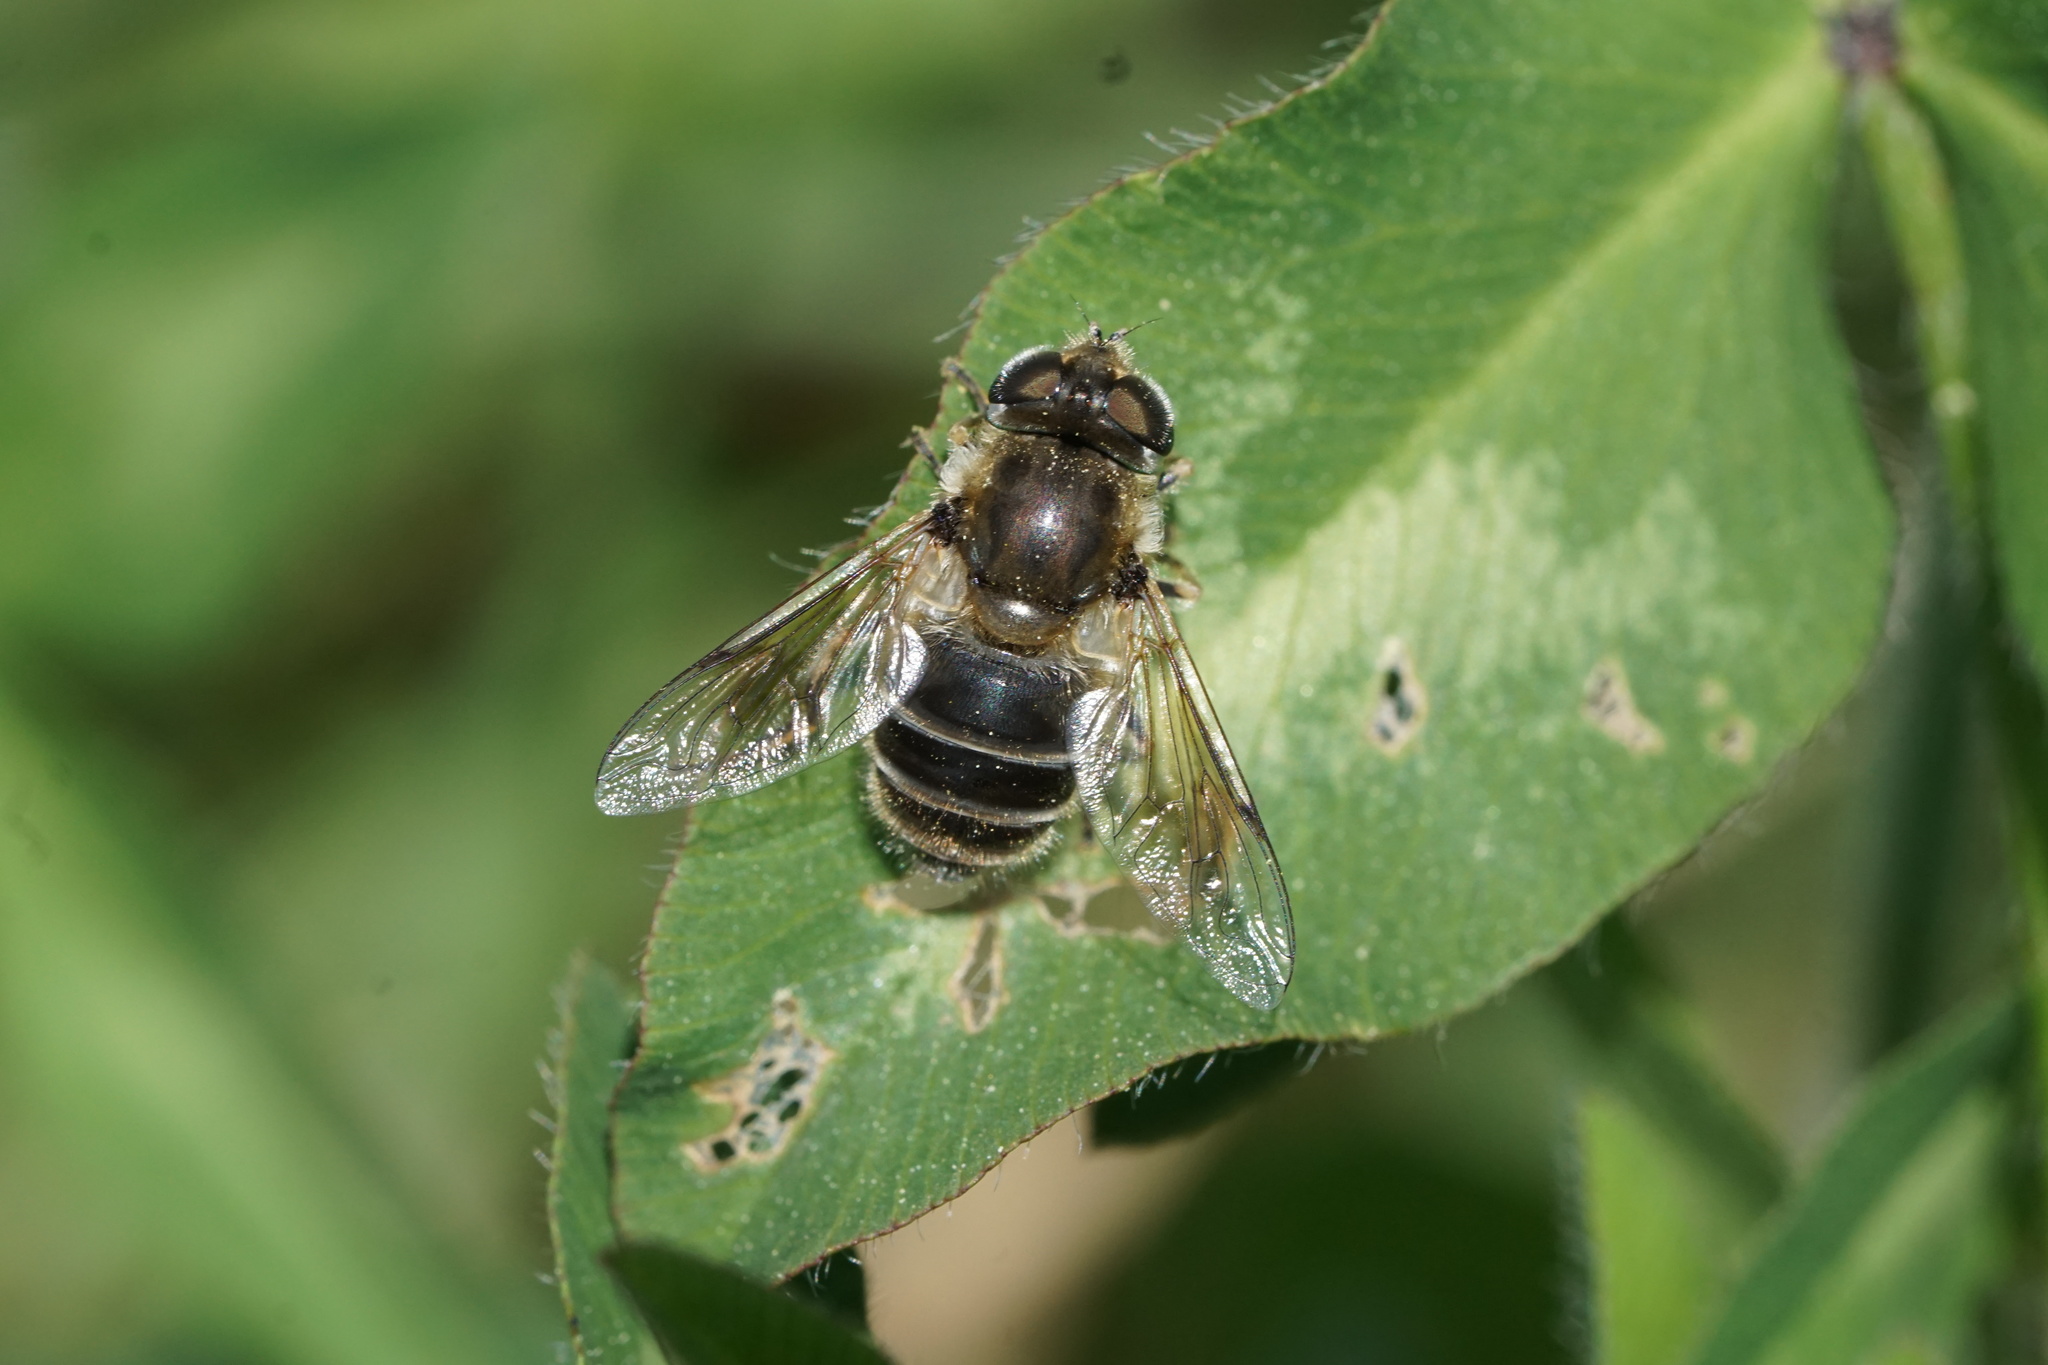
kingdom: Animalia
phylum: Arthropoda
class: Insecta
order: Diptera
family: Syrphidae
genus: Eristalis
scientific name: Eristalis arbustorum
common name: Hover fly
